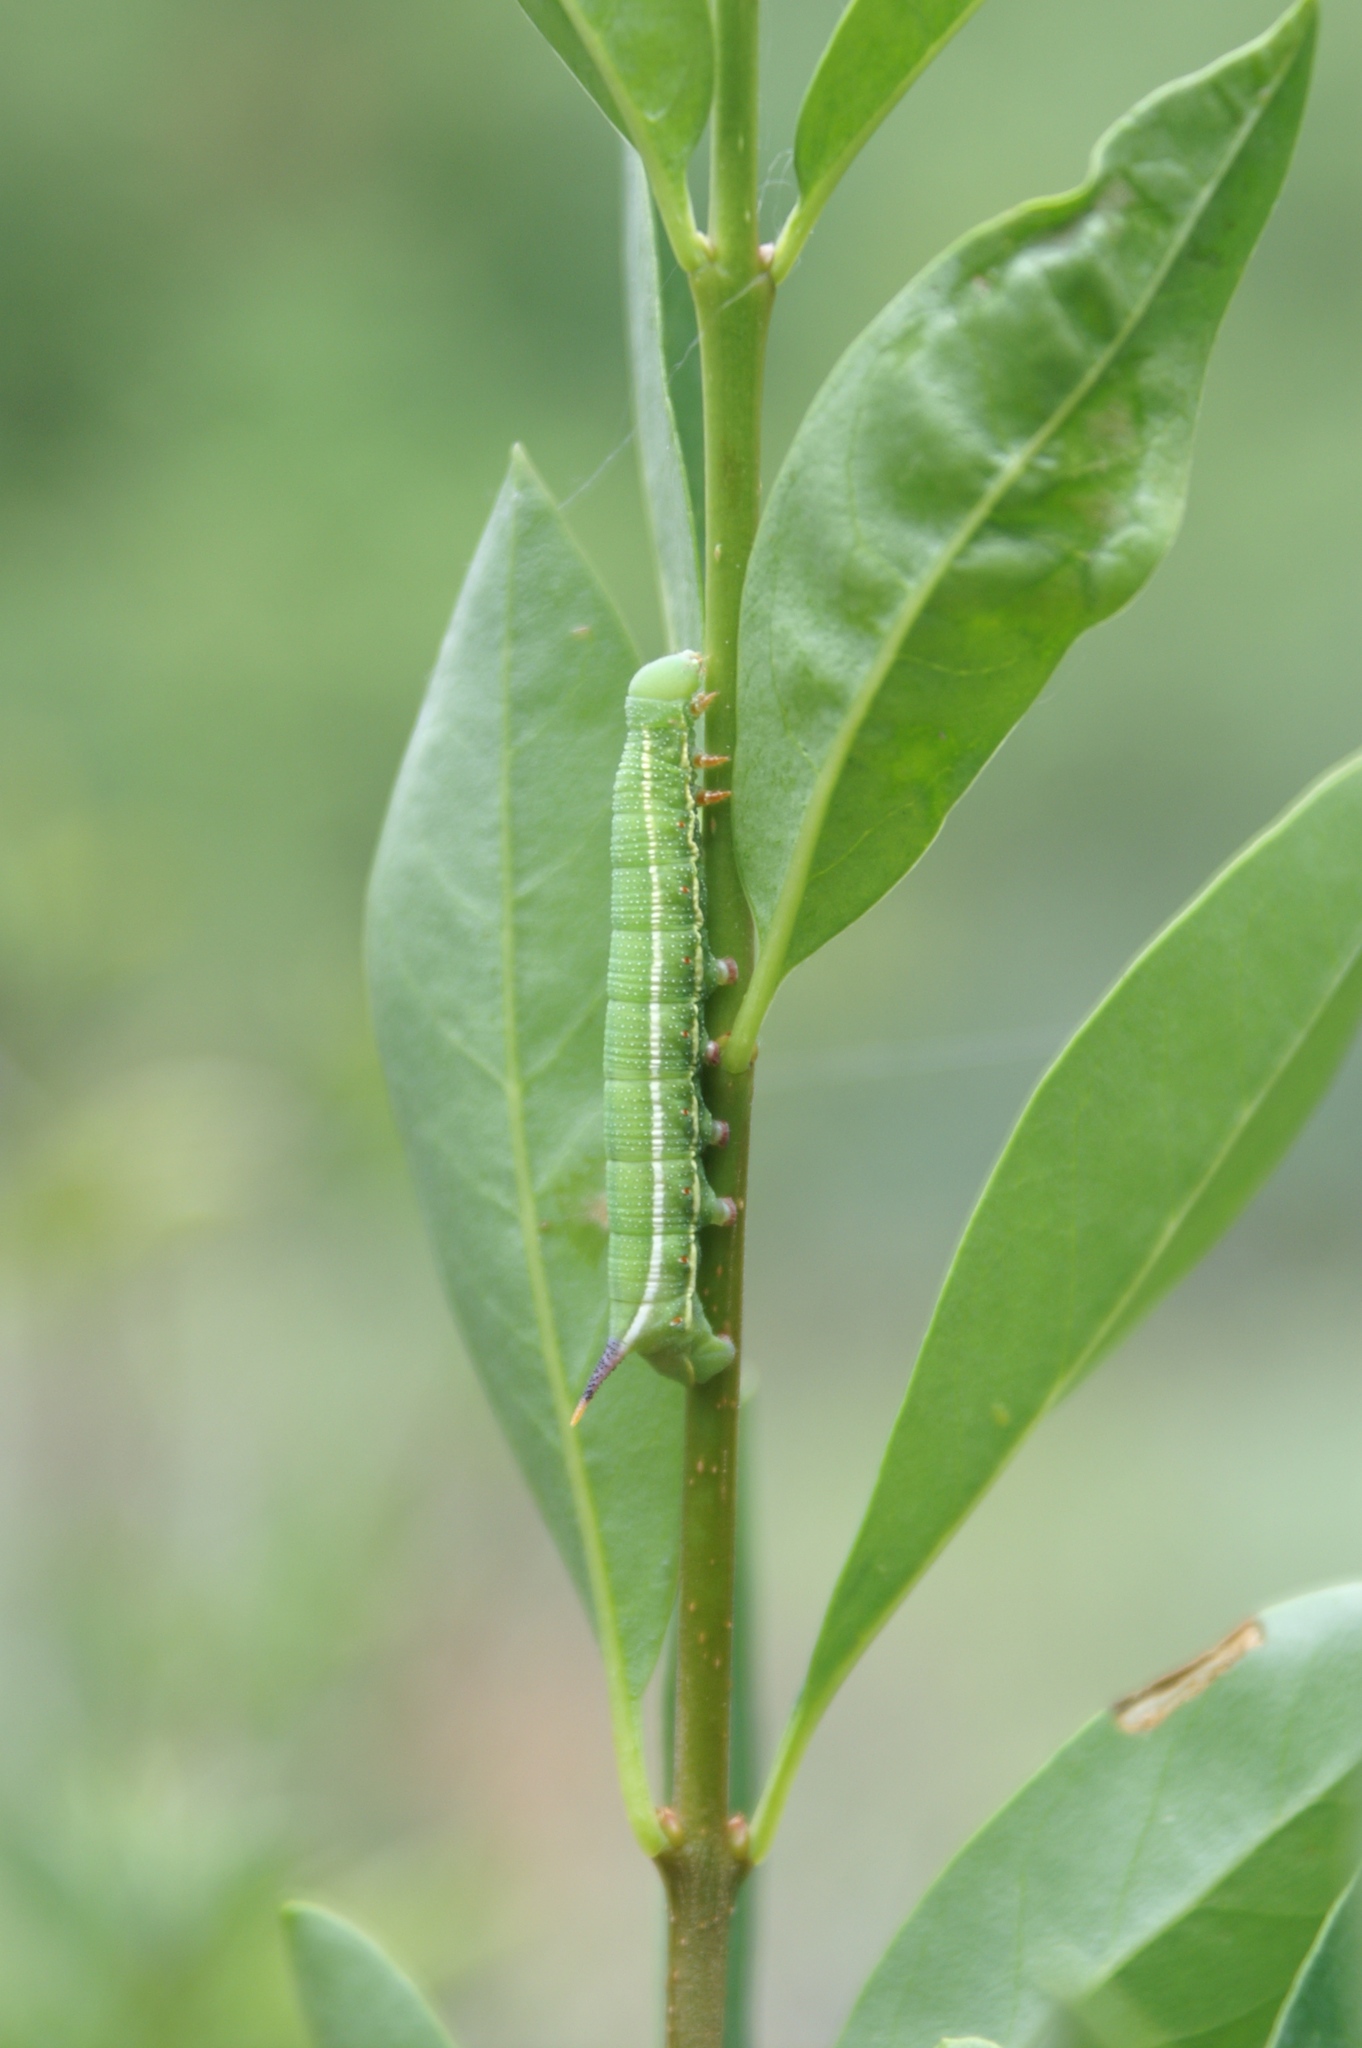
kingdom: Animalia
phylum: Arthropoda
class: Insecta
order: Lepidoptera
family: Sphingidae
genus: Macroglossum
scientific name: Macroglossum stellatarum
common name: Humming-bird hawk-moth
